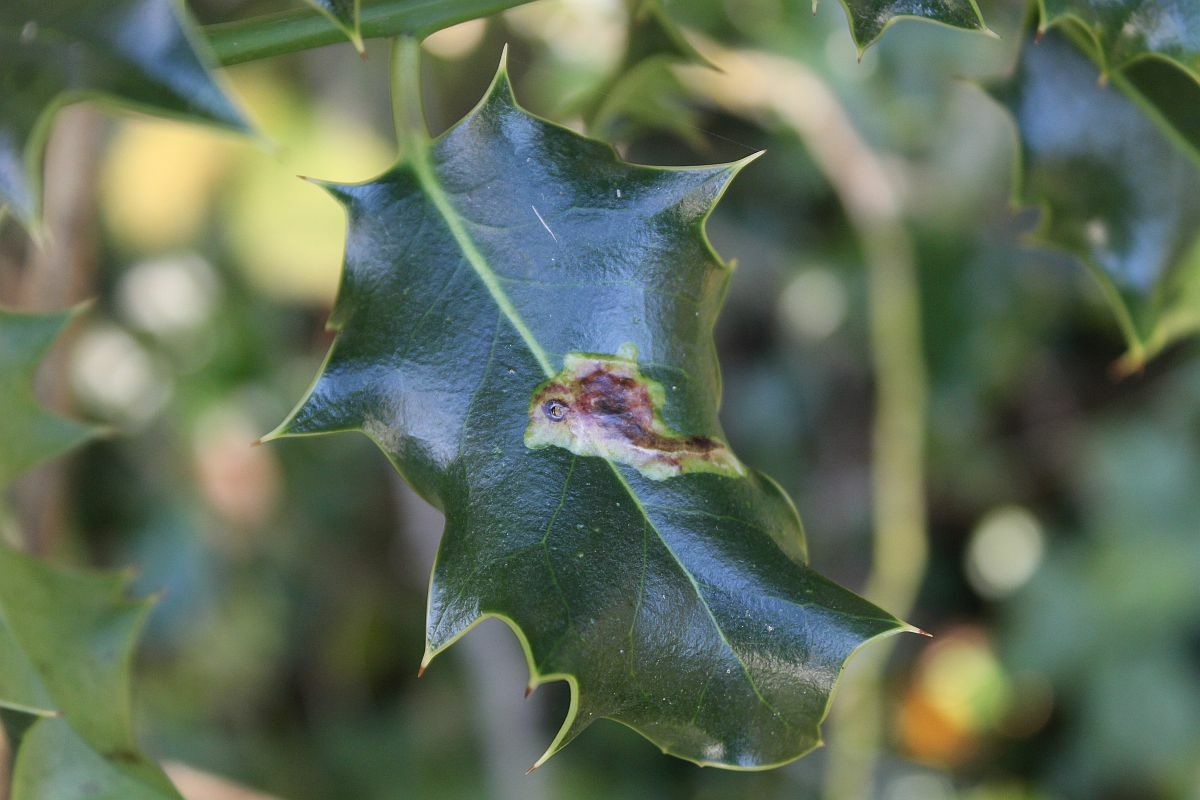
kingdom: Animalia
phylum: Arthropoda
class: Insecta
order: Diptera
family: Agromyzidae
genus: Phytomyza
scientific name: Phytomyza ilicis
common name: Holly leafminer
